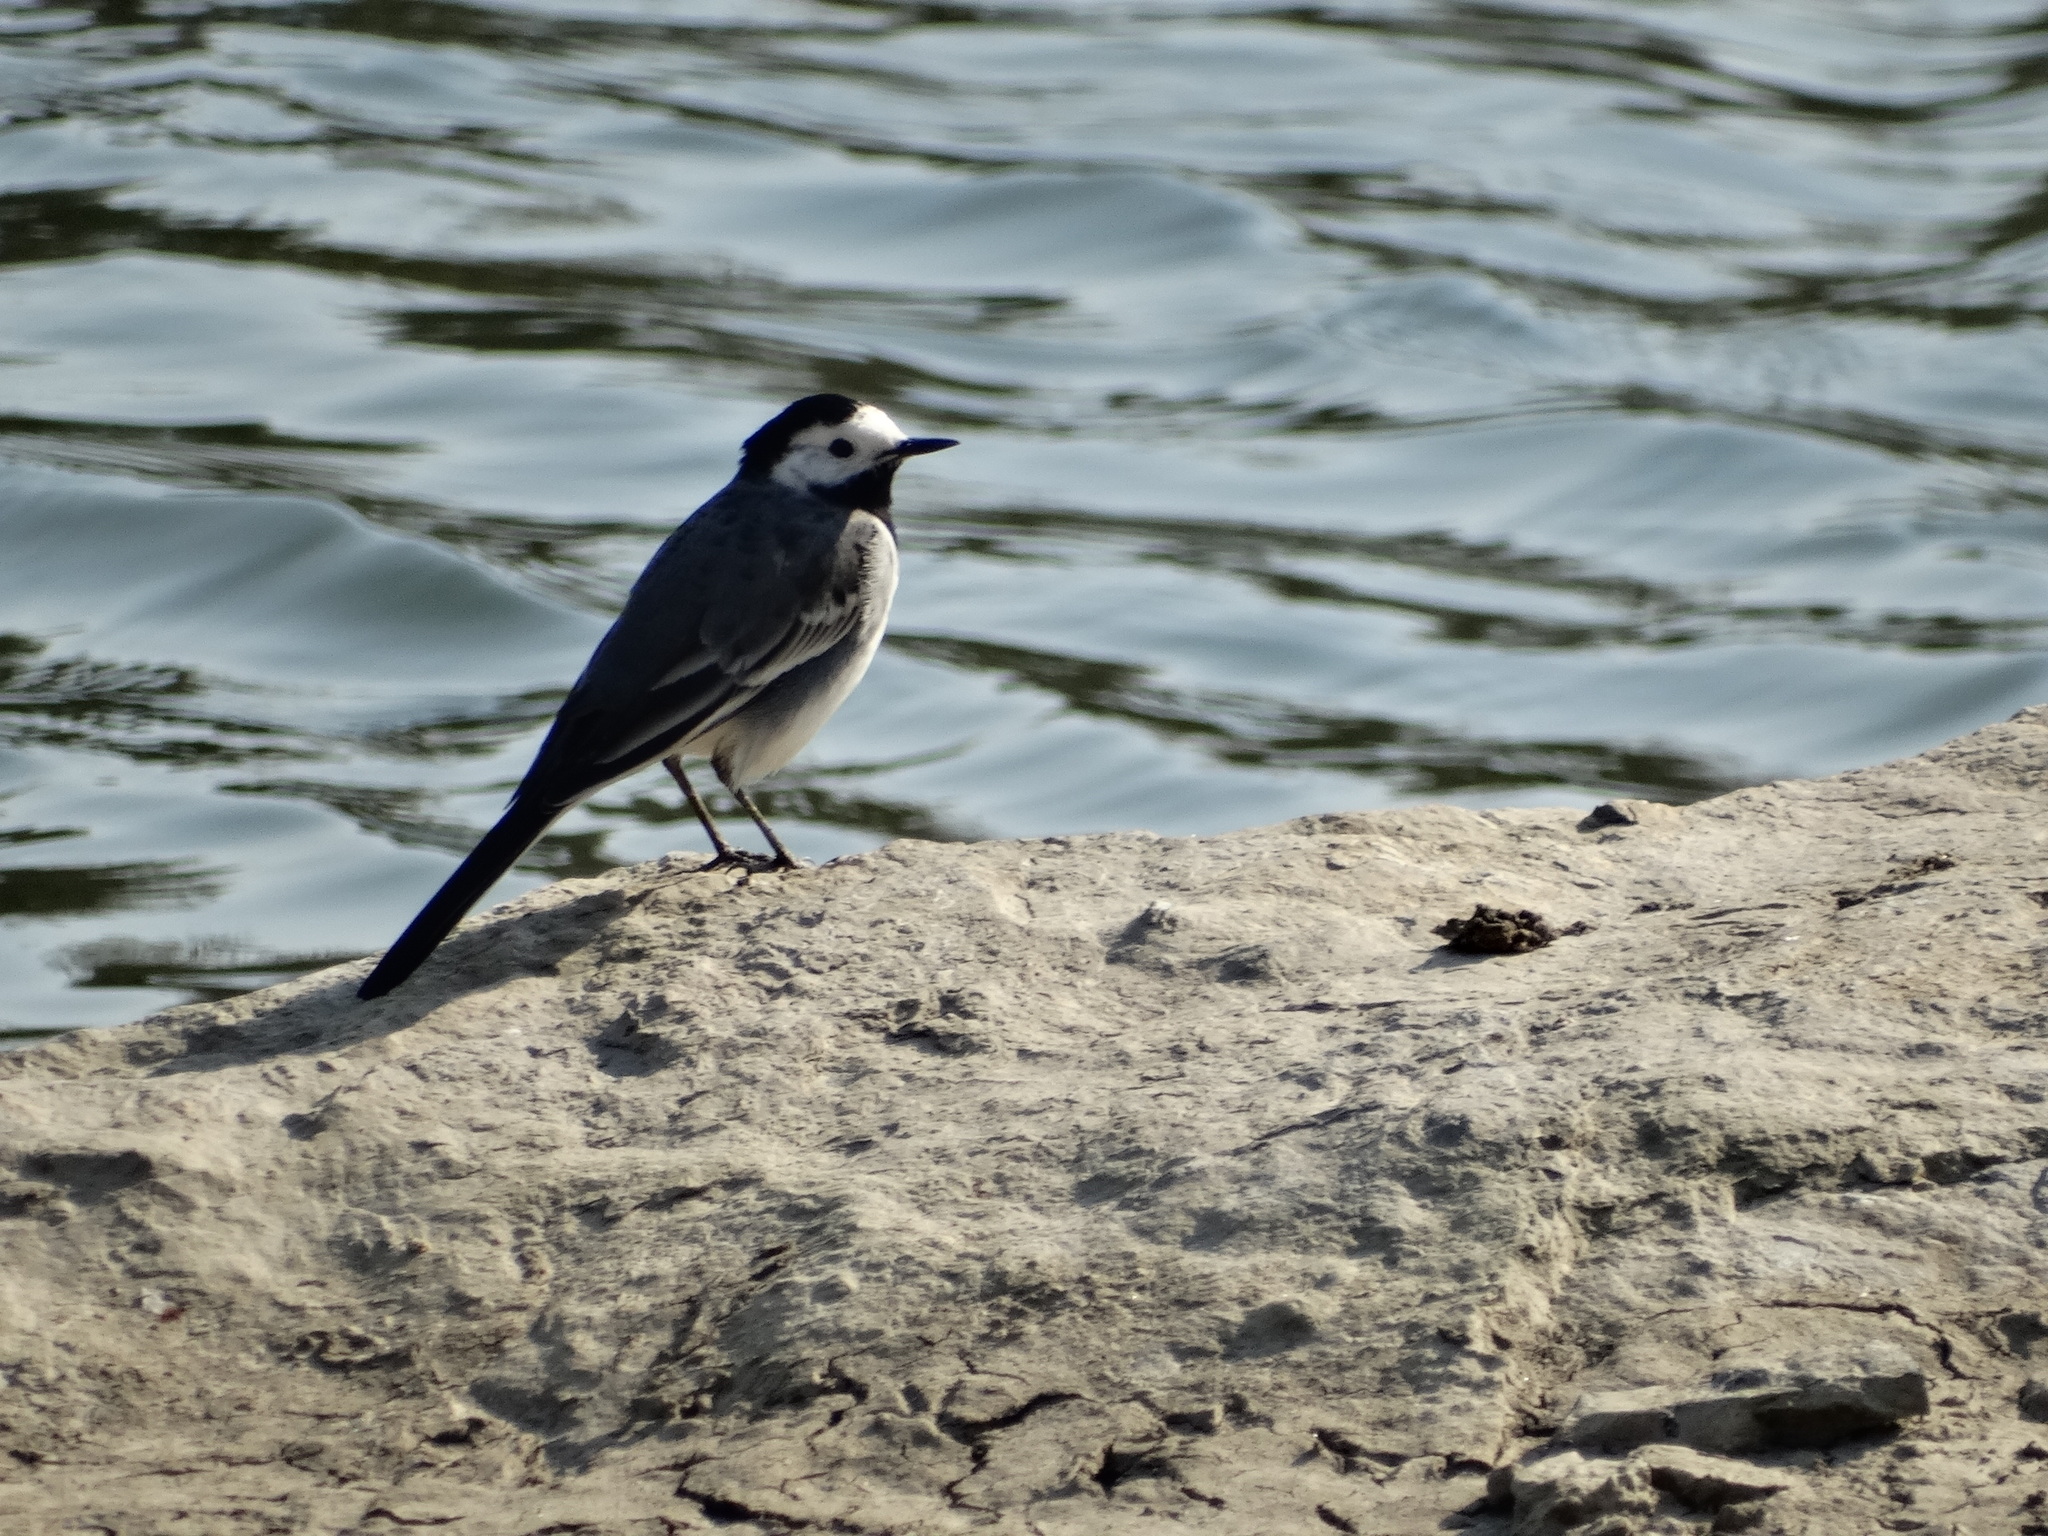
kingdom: Animalia
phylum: Chordata
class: Aves
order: Passeriformes
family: Motacillidae
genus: Motacilla
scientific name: Motacilla alba
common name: White wagtail
